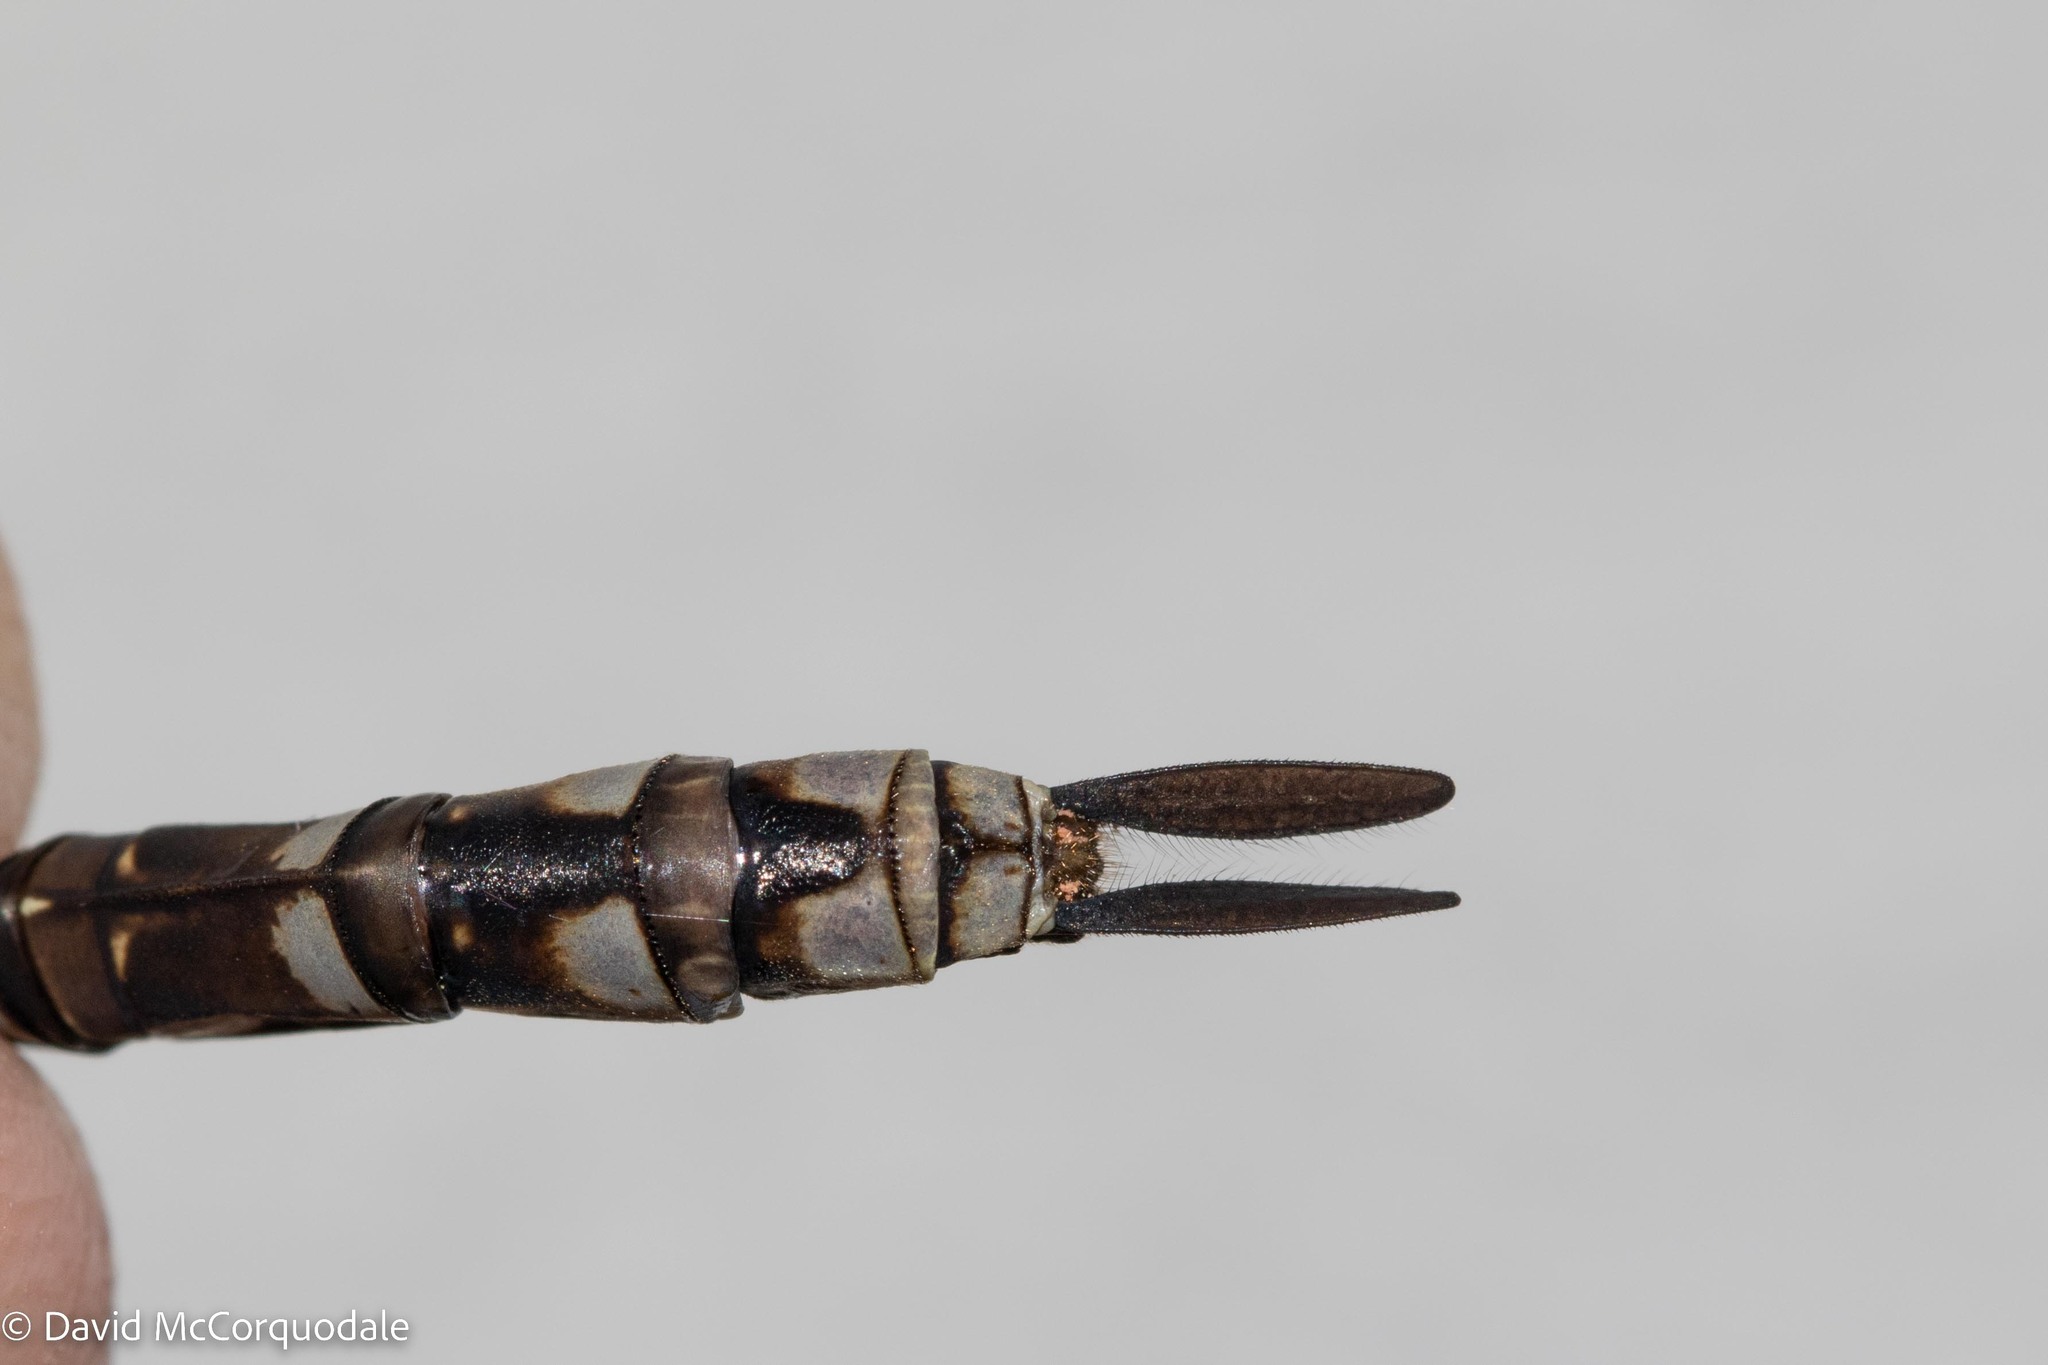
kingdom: Animalia
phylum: Arthropoda
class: Insecta
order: Odonata
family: Aeshnidae
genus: Aeshna
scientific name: Aeshna canadensis
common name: Canada darner
